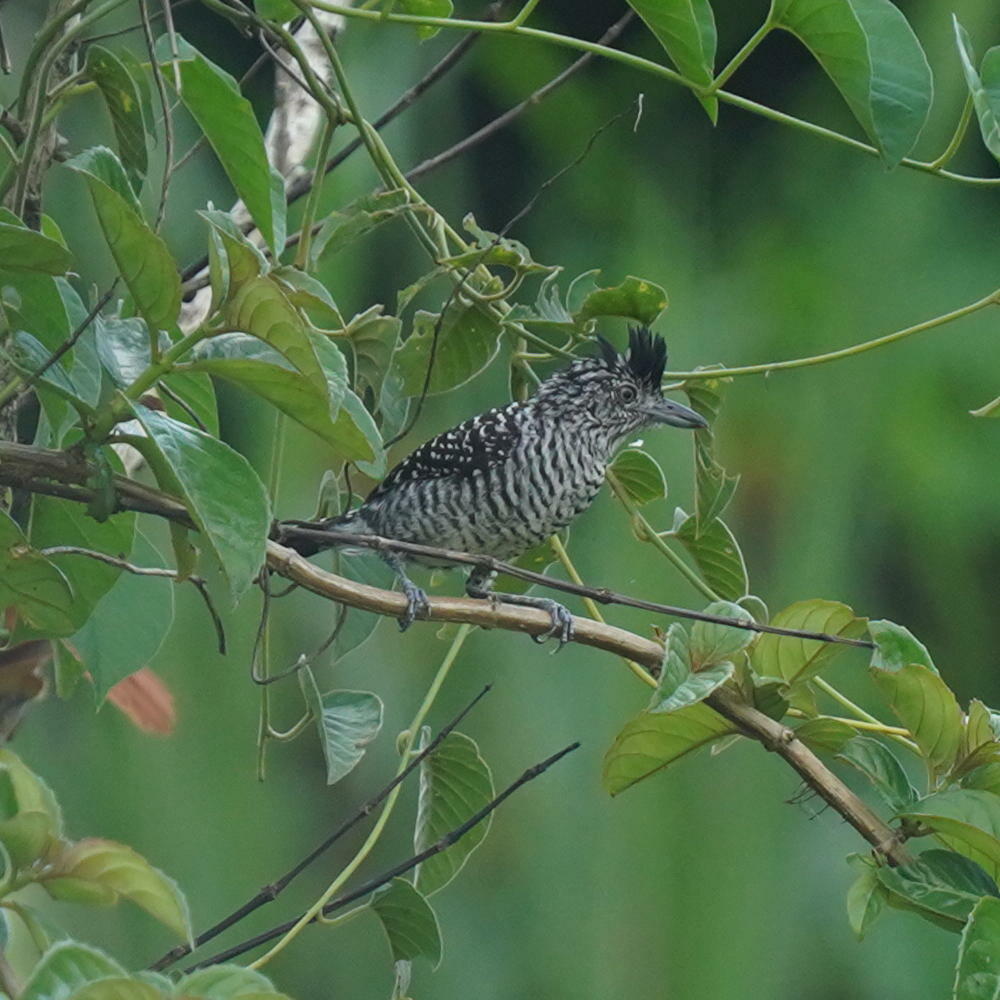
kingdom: Animalia
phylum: Chordata
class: Aves
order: Passeriformes
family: Thamnophilidae
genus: Thamnophilus
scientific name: Thamnophilus doliatus
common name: Barred antshrike
